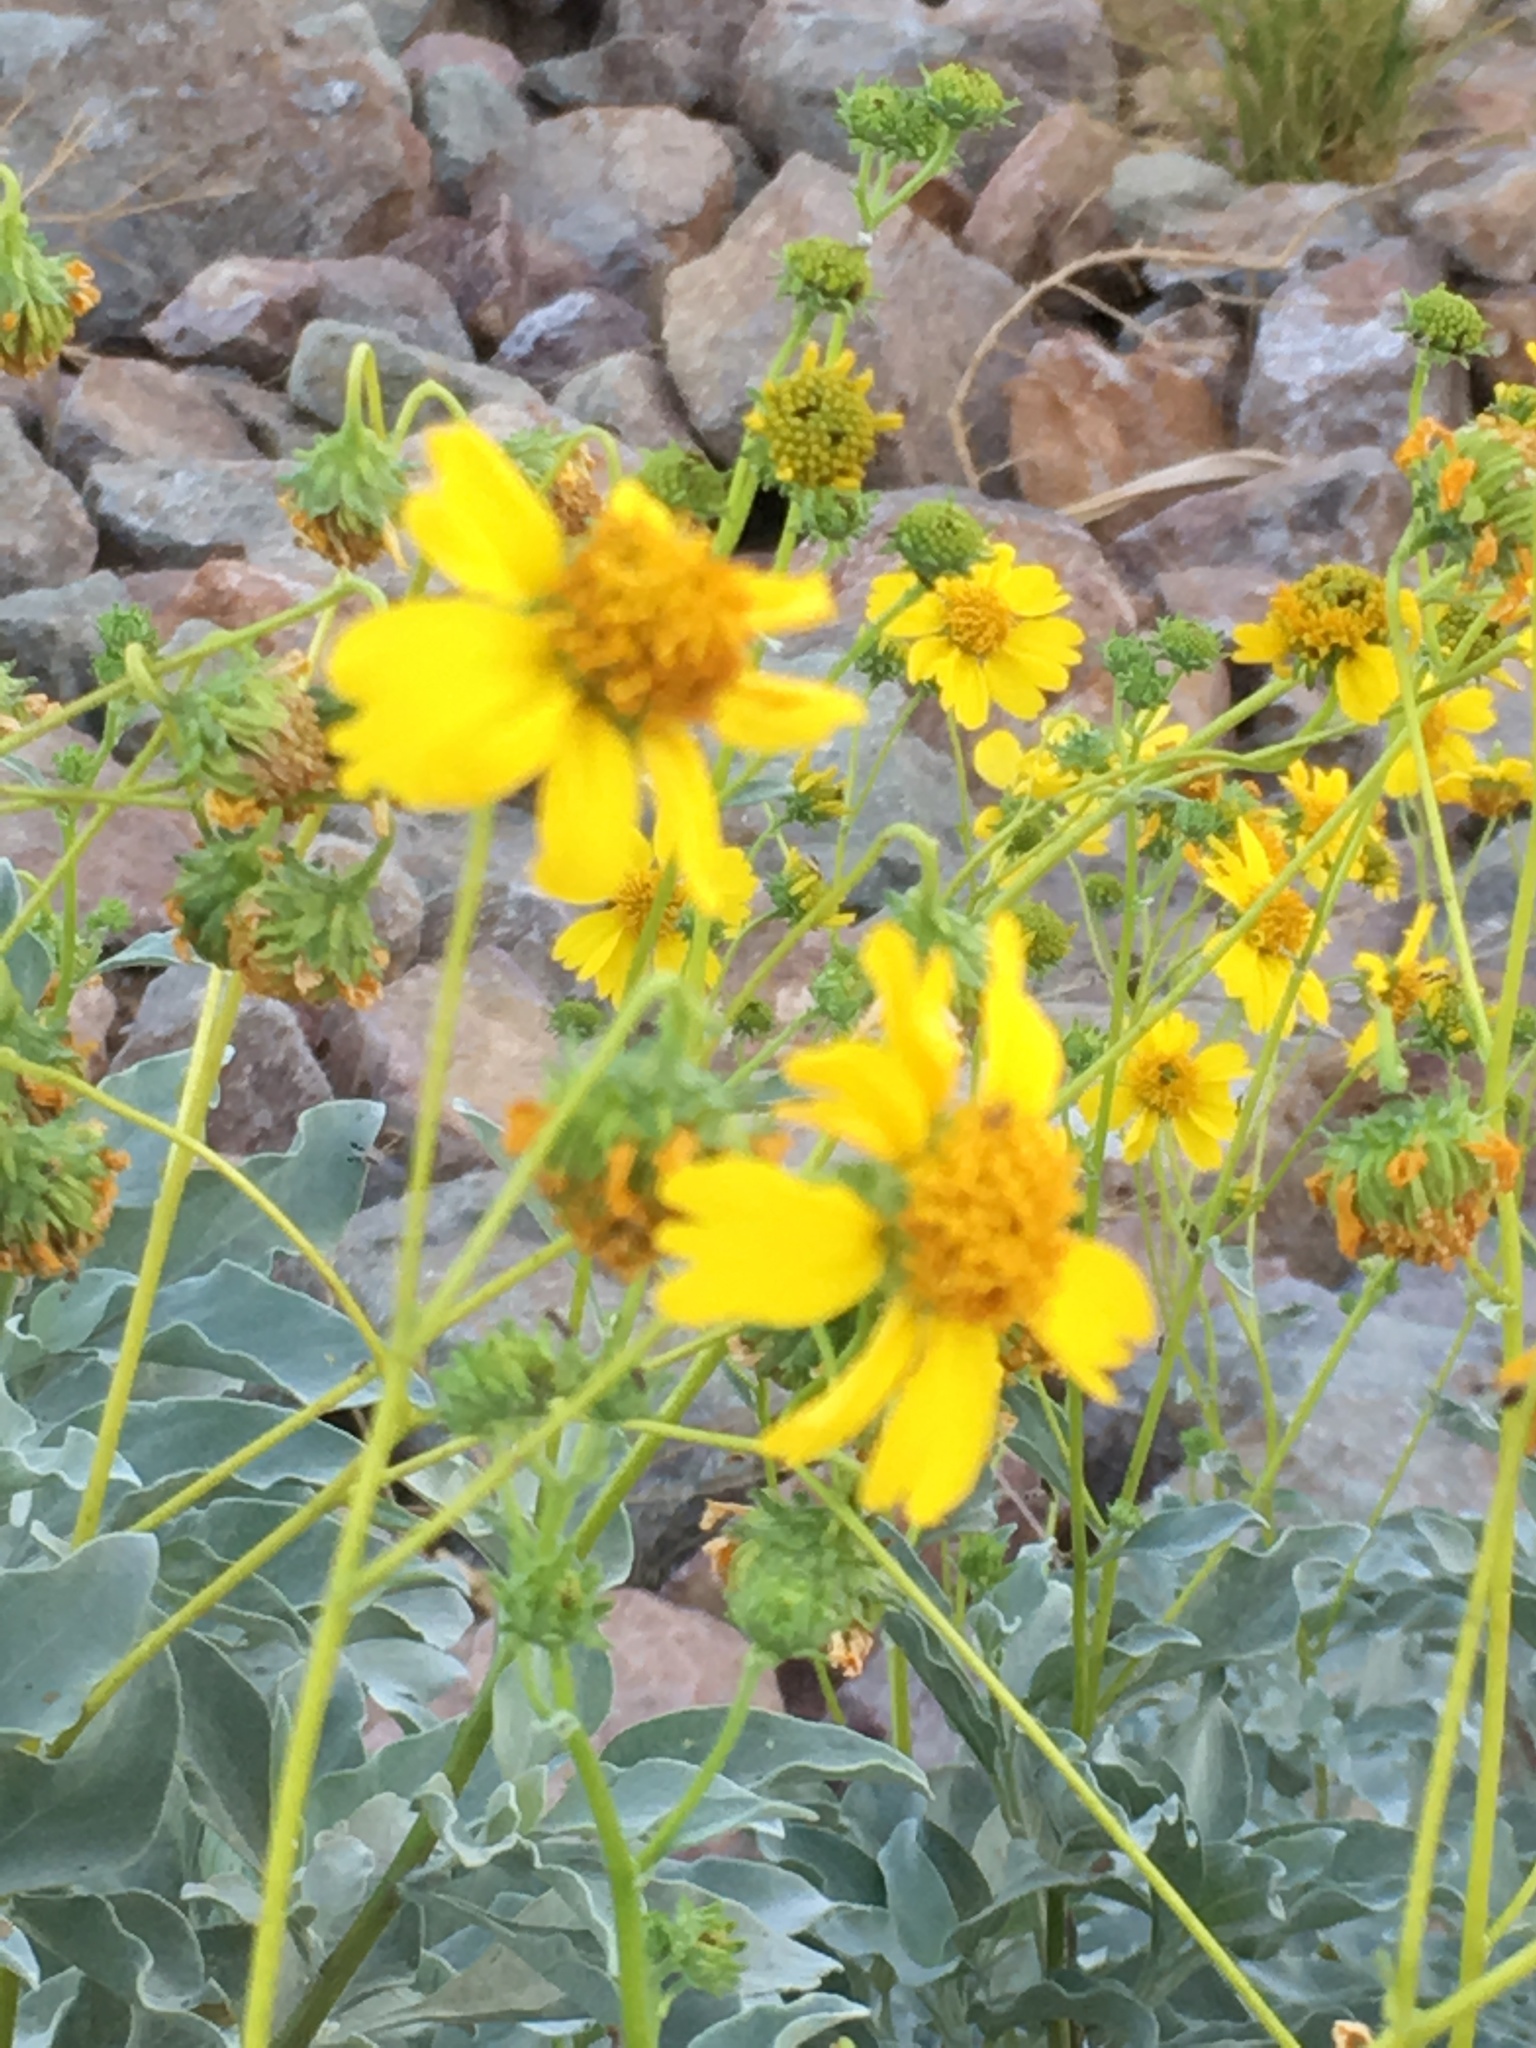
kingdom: Plantae
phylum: Tracheophyta
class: Magnoliopsida
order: Asterales
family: Asteraceae
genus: Encelia
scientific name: Encelia farinosa
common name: Brittlebush
